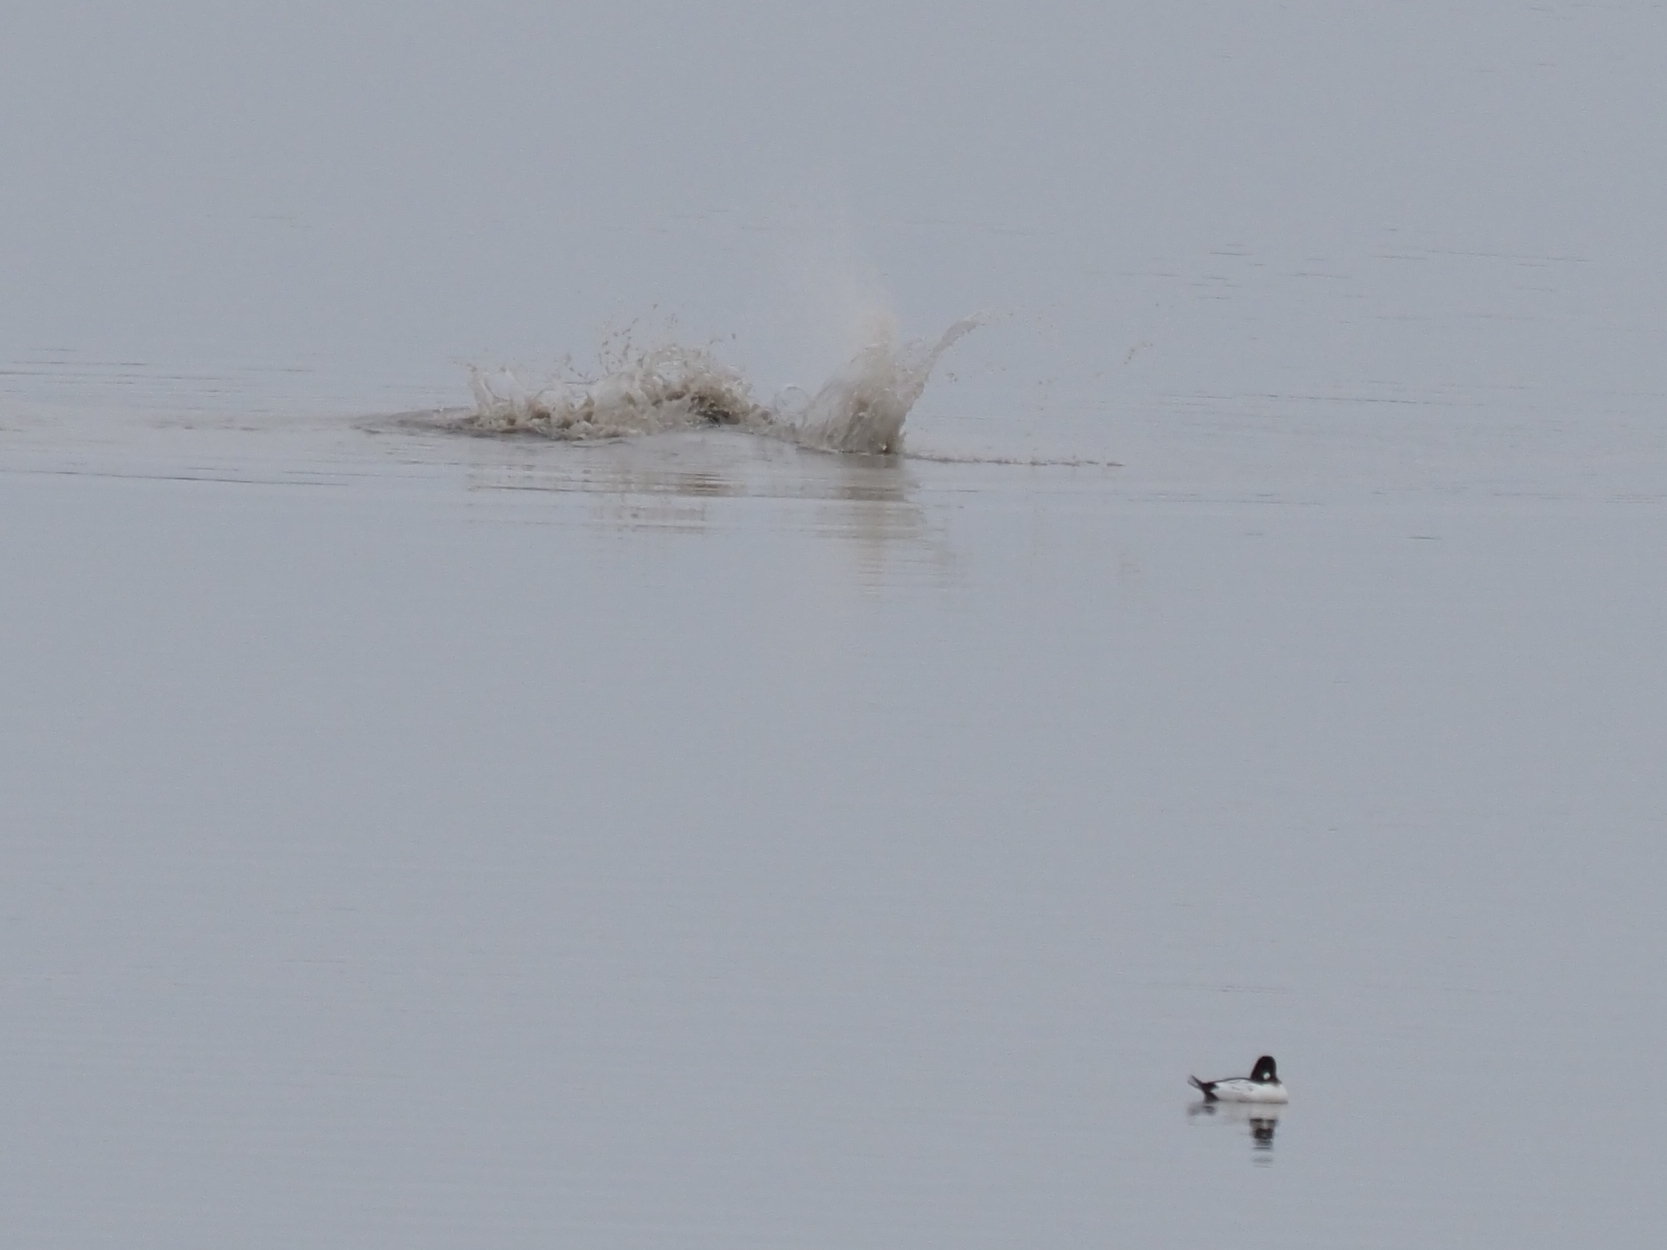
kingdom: Animalia
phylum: Chordata
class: Mammalia
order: Carnivora
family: Phocidae
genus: Phoca
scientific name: Phoca vitulina
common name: Harbor seal
